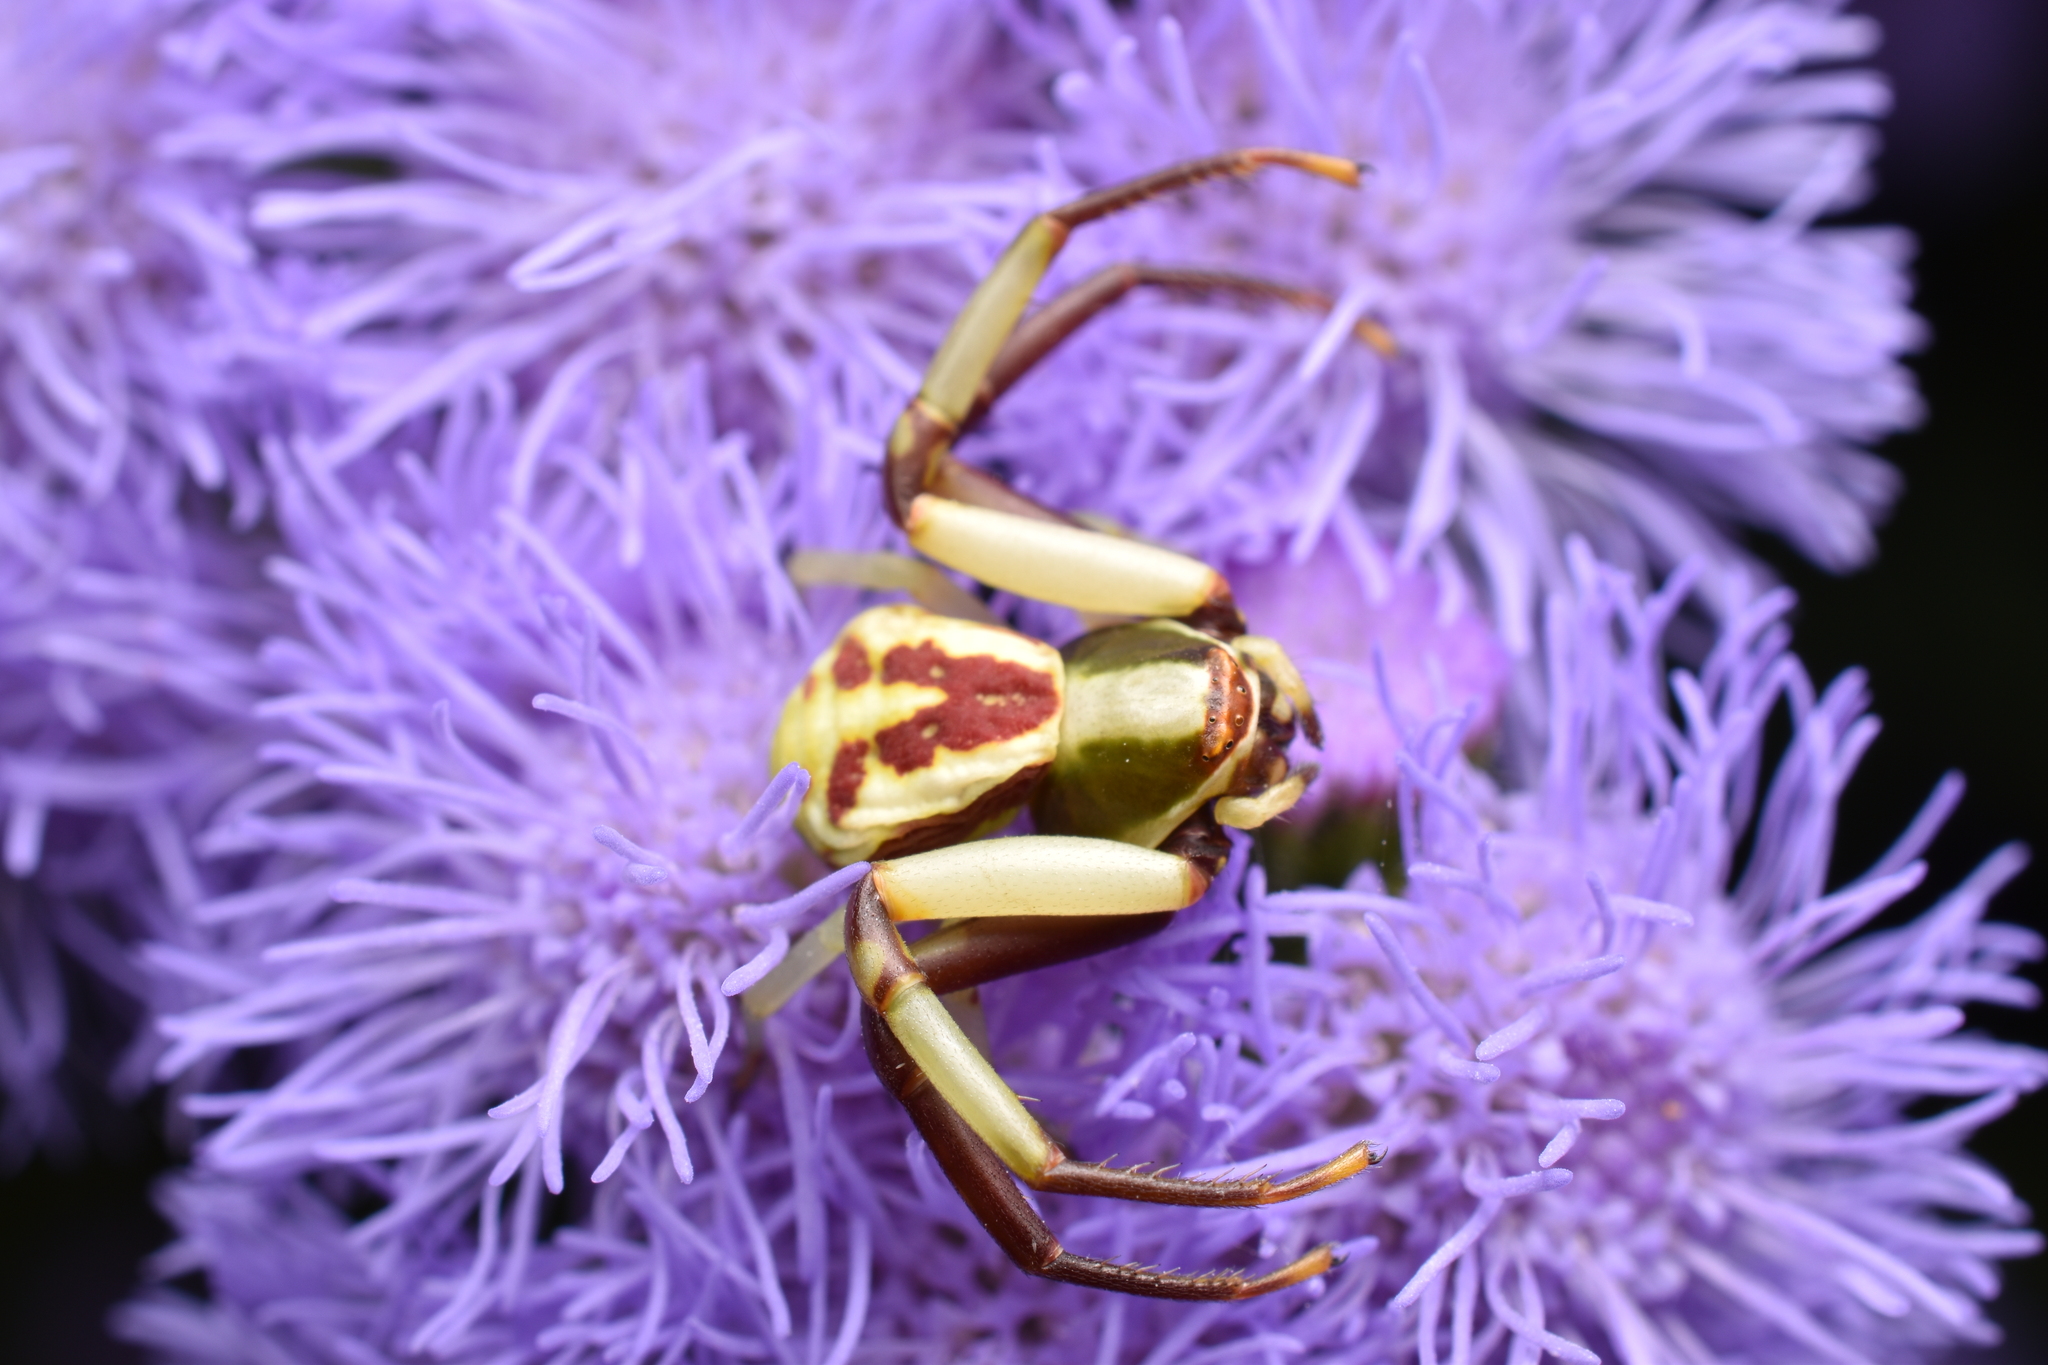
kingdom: Animalia
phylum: Arthropoda
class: Arachnida
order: Araneae
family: Thomisidae
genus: Misumenoides
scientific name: Misumenoides formosipes
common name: White-banded crab spider
